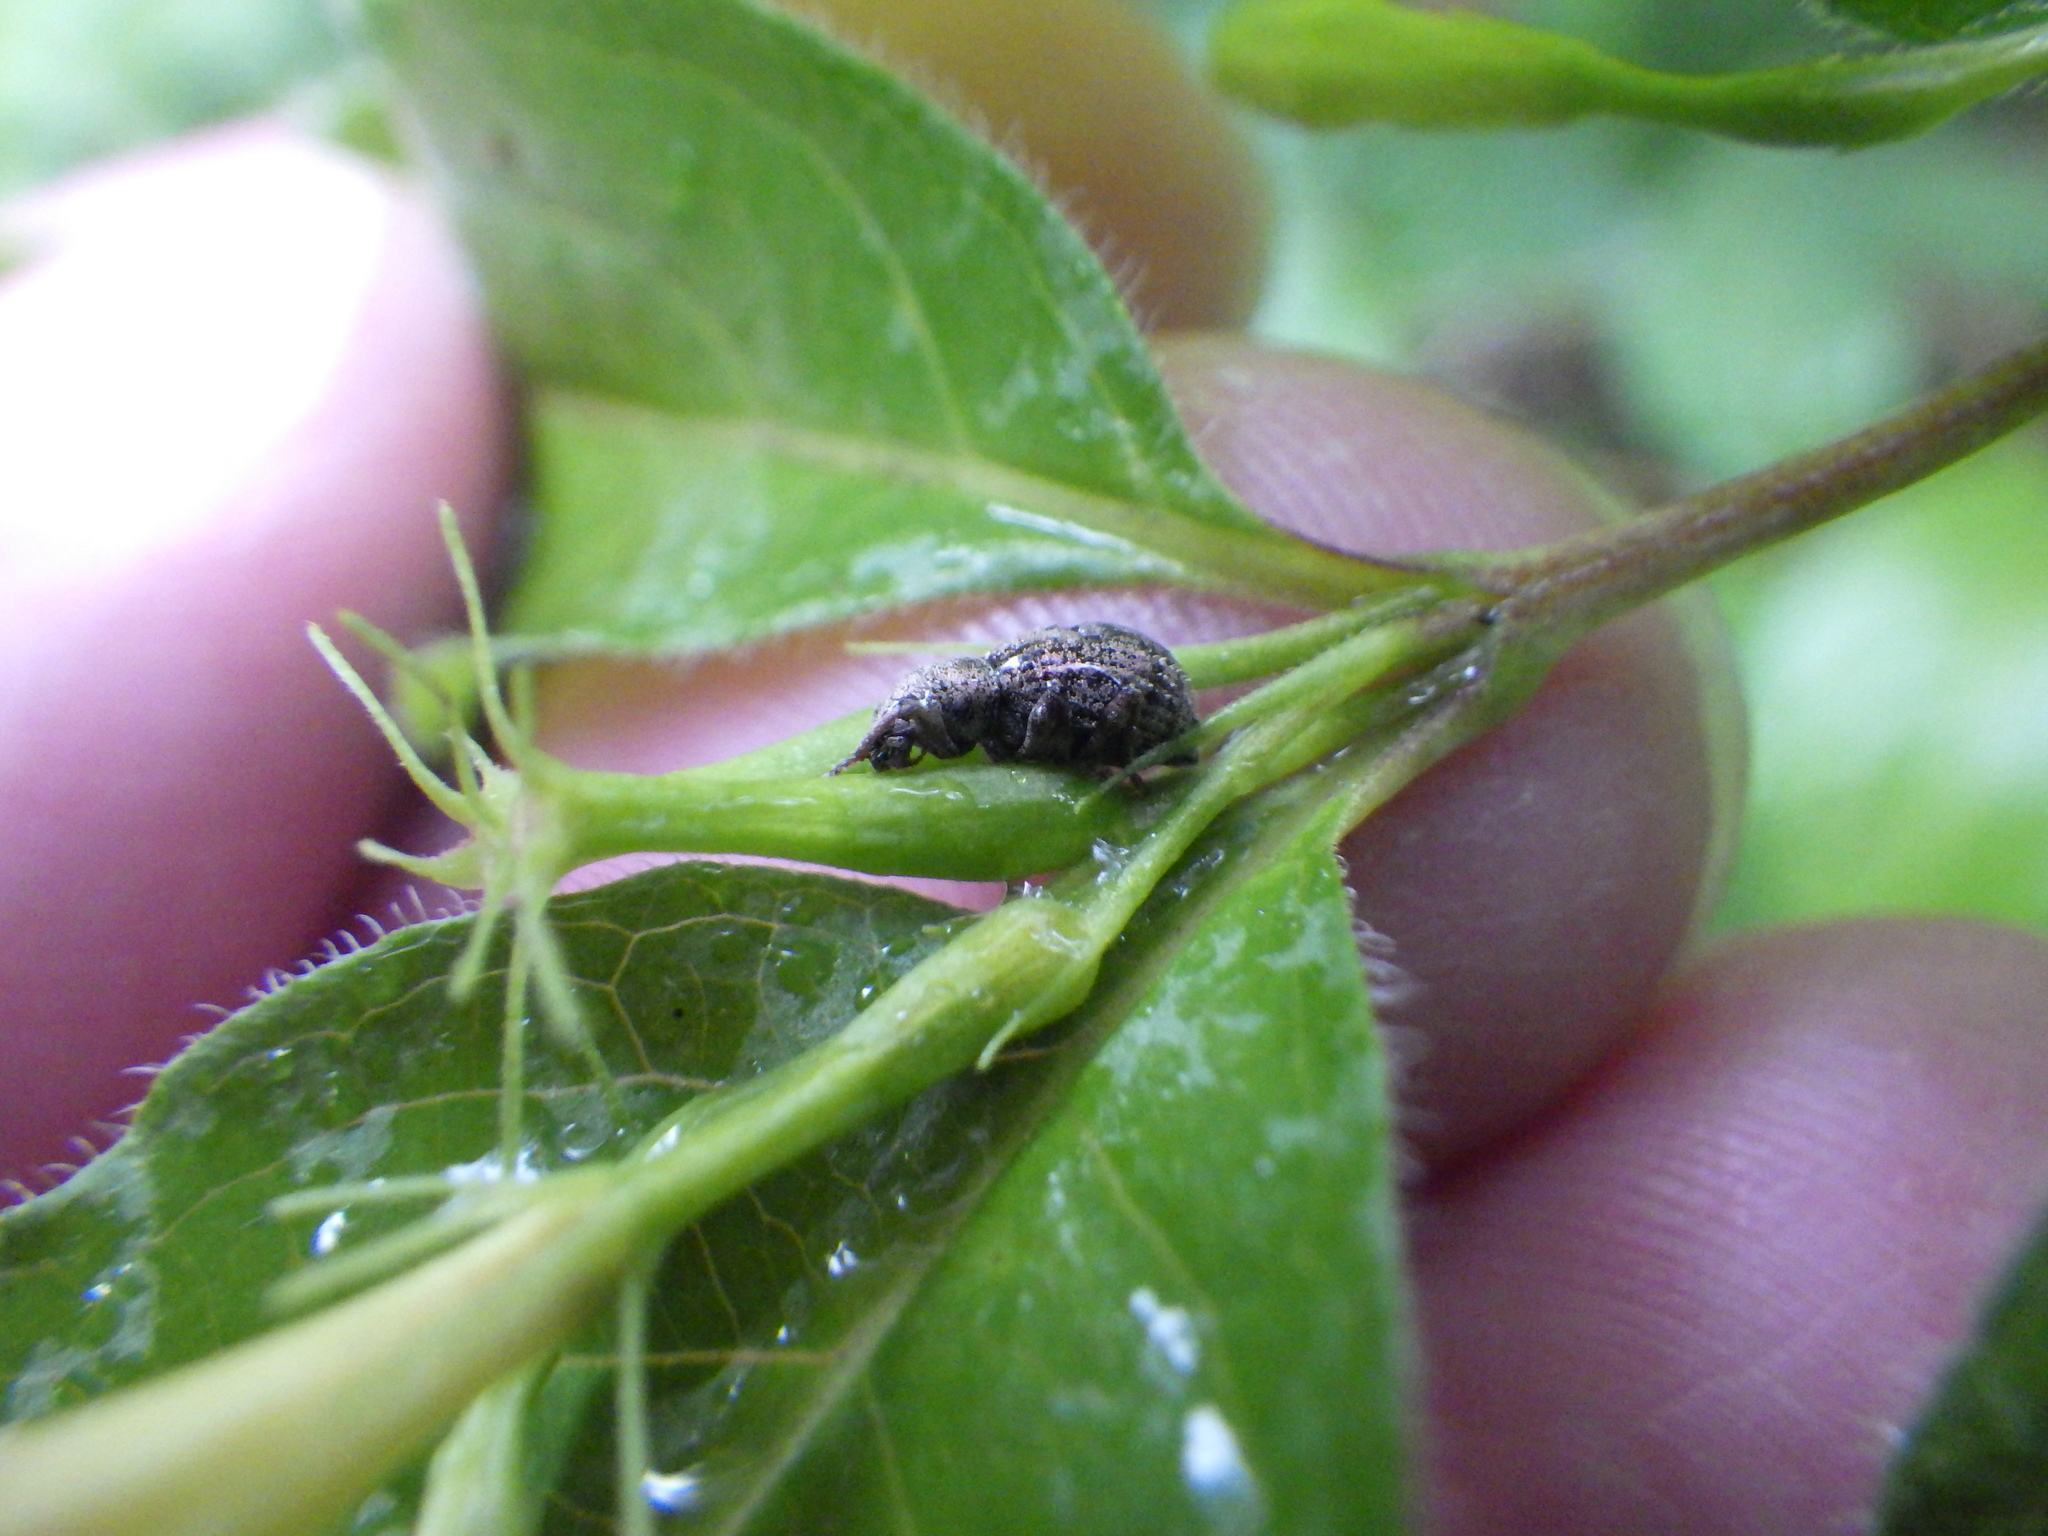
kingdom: Animalia
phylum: Arthropoda
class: Insecta
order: Coleoptera
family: Curculionidae
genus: Sciaphilus
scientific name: Sciaphilus asperatus
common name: Weevil
